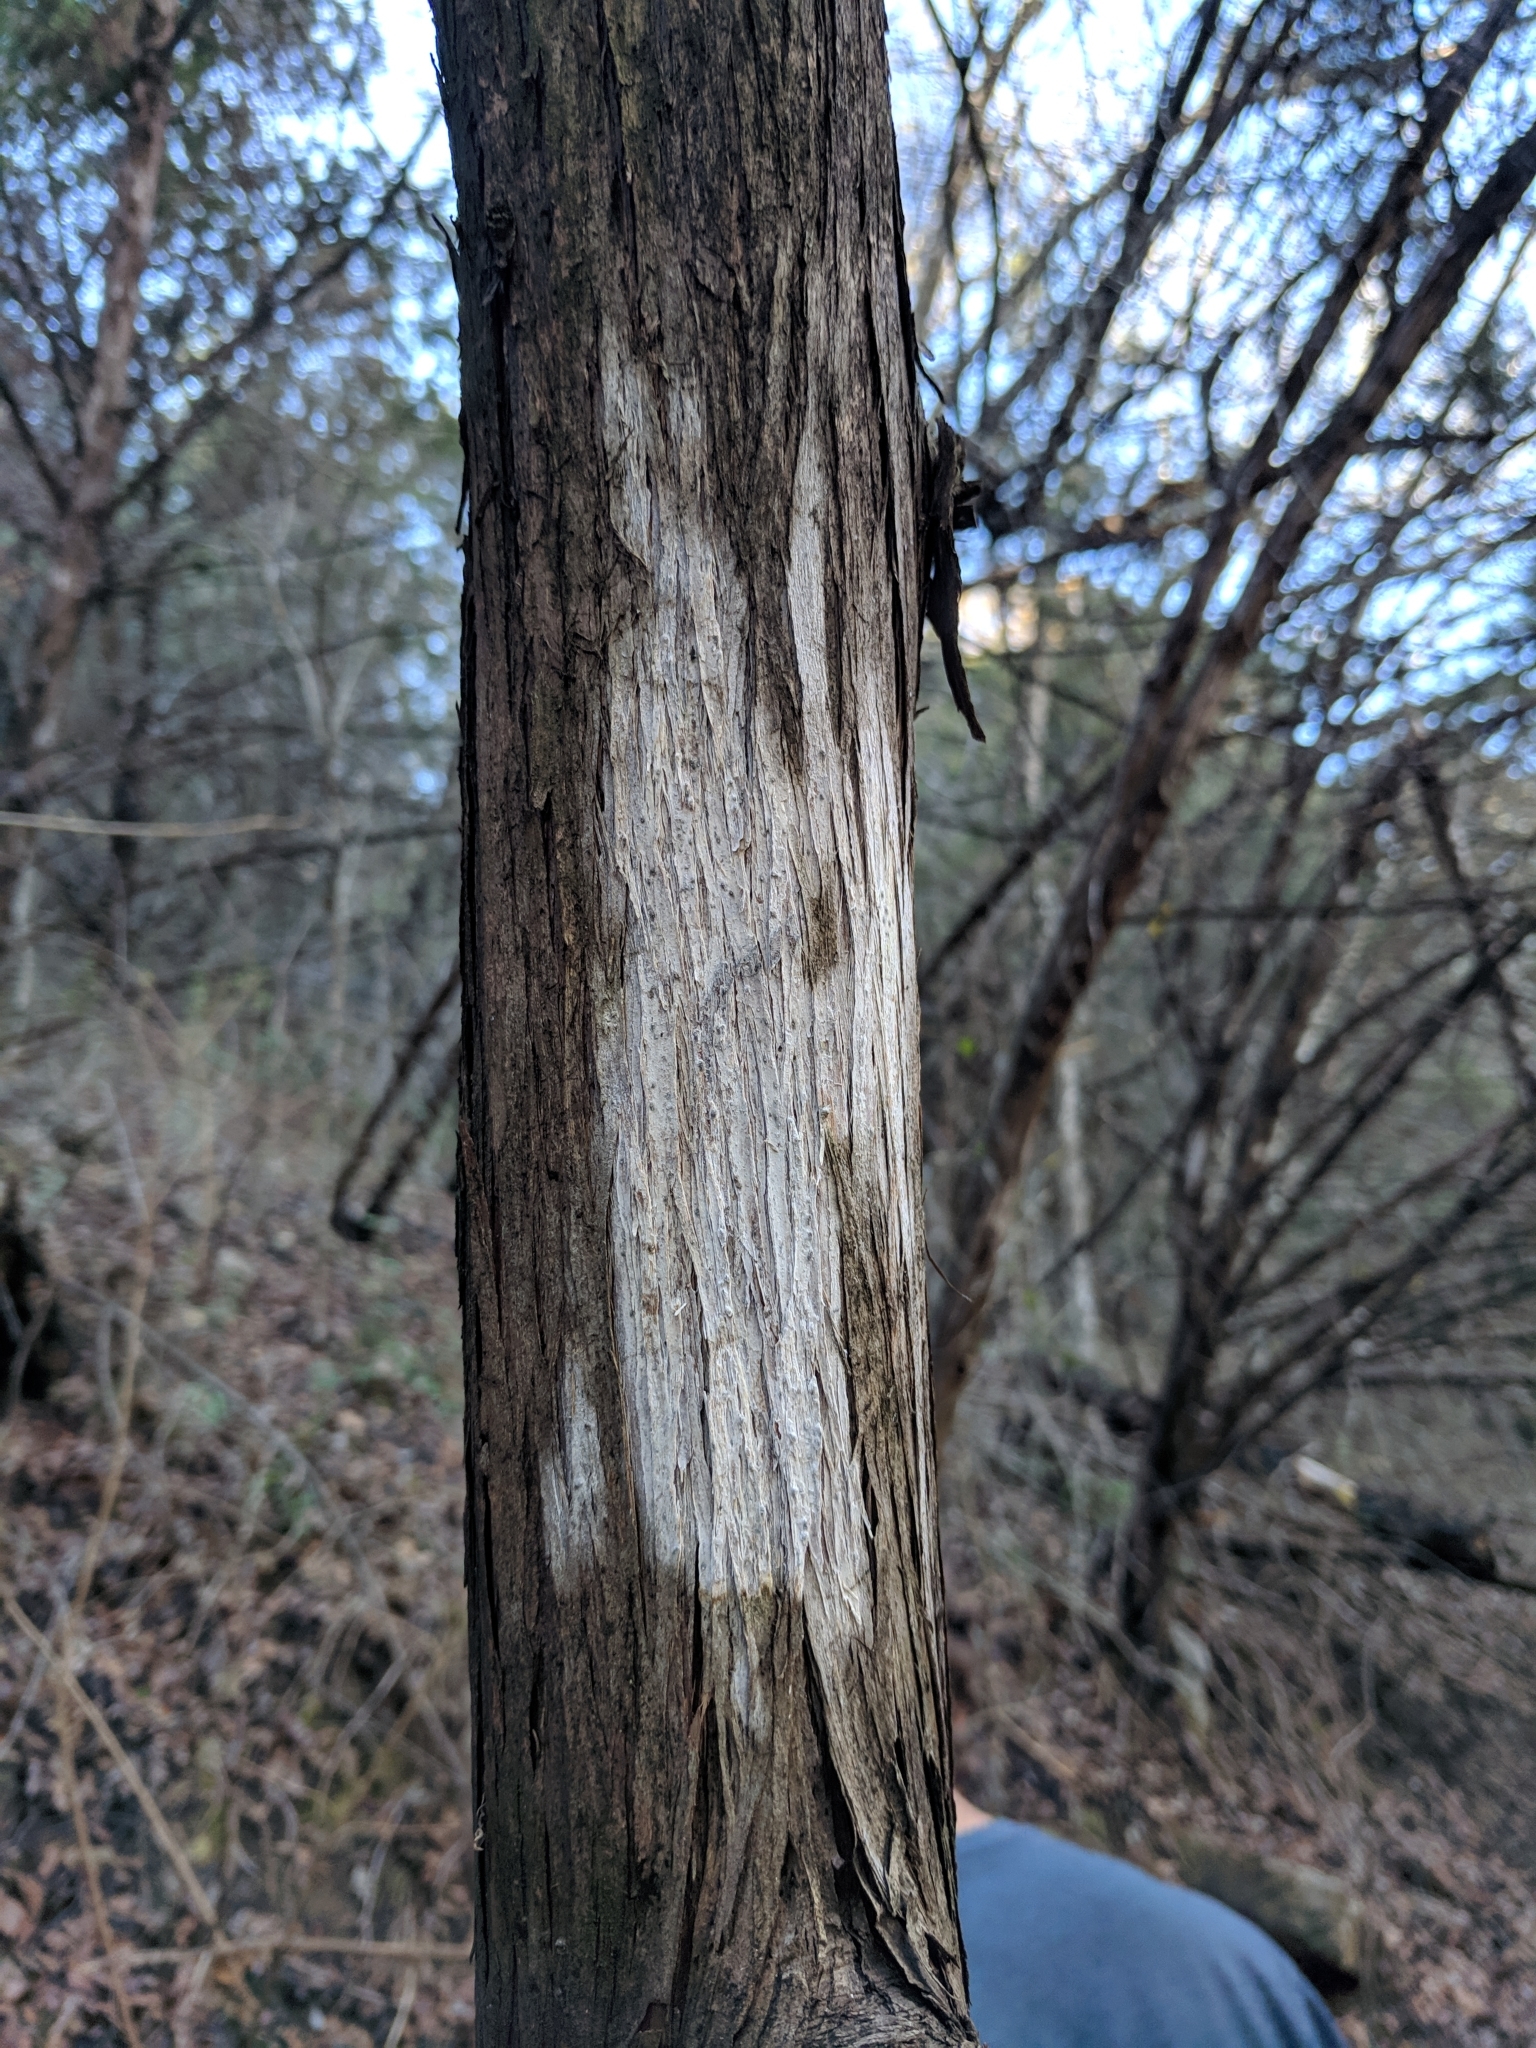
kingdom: Fungi
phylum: Ascomycota
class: Lecanoromycetes
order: Ostropales
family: Stictidaceae
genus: Robergea
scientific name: Robergea
